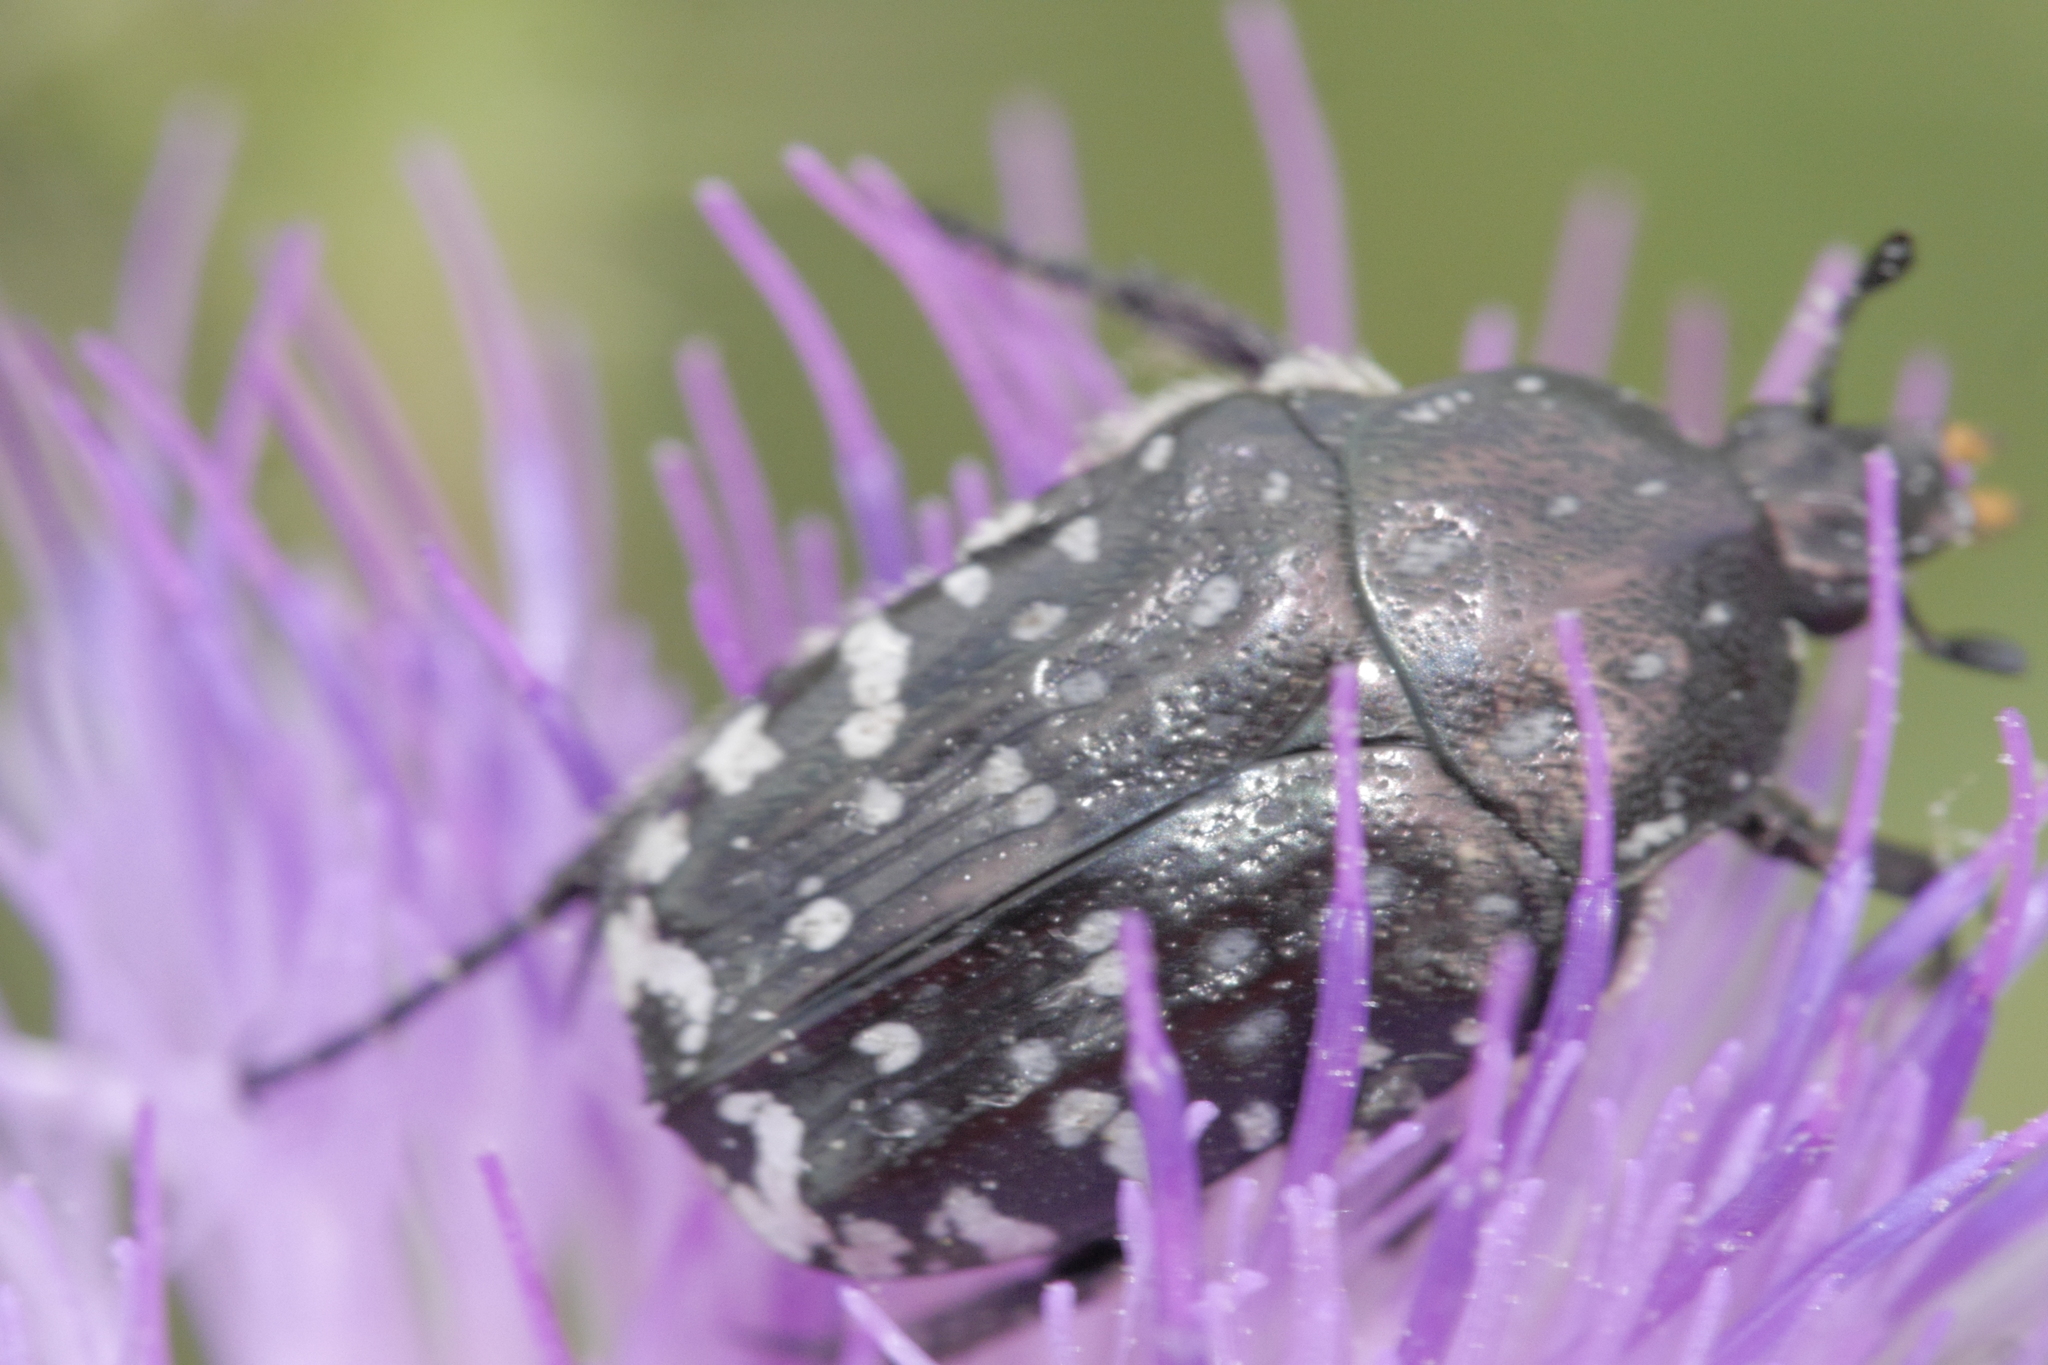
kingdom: Animalia
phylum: Arthropoda
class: Insecta
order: Coleoptera
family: Scarabaeidae
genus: Oxythyrea
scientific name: Oxythyrea funesta
